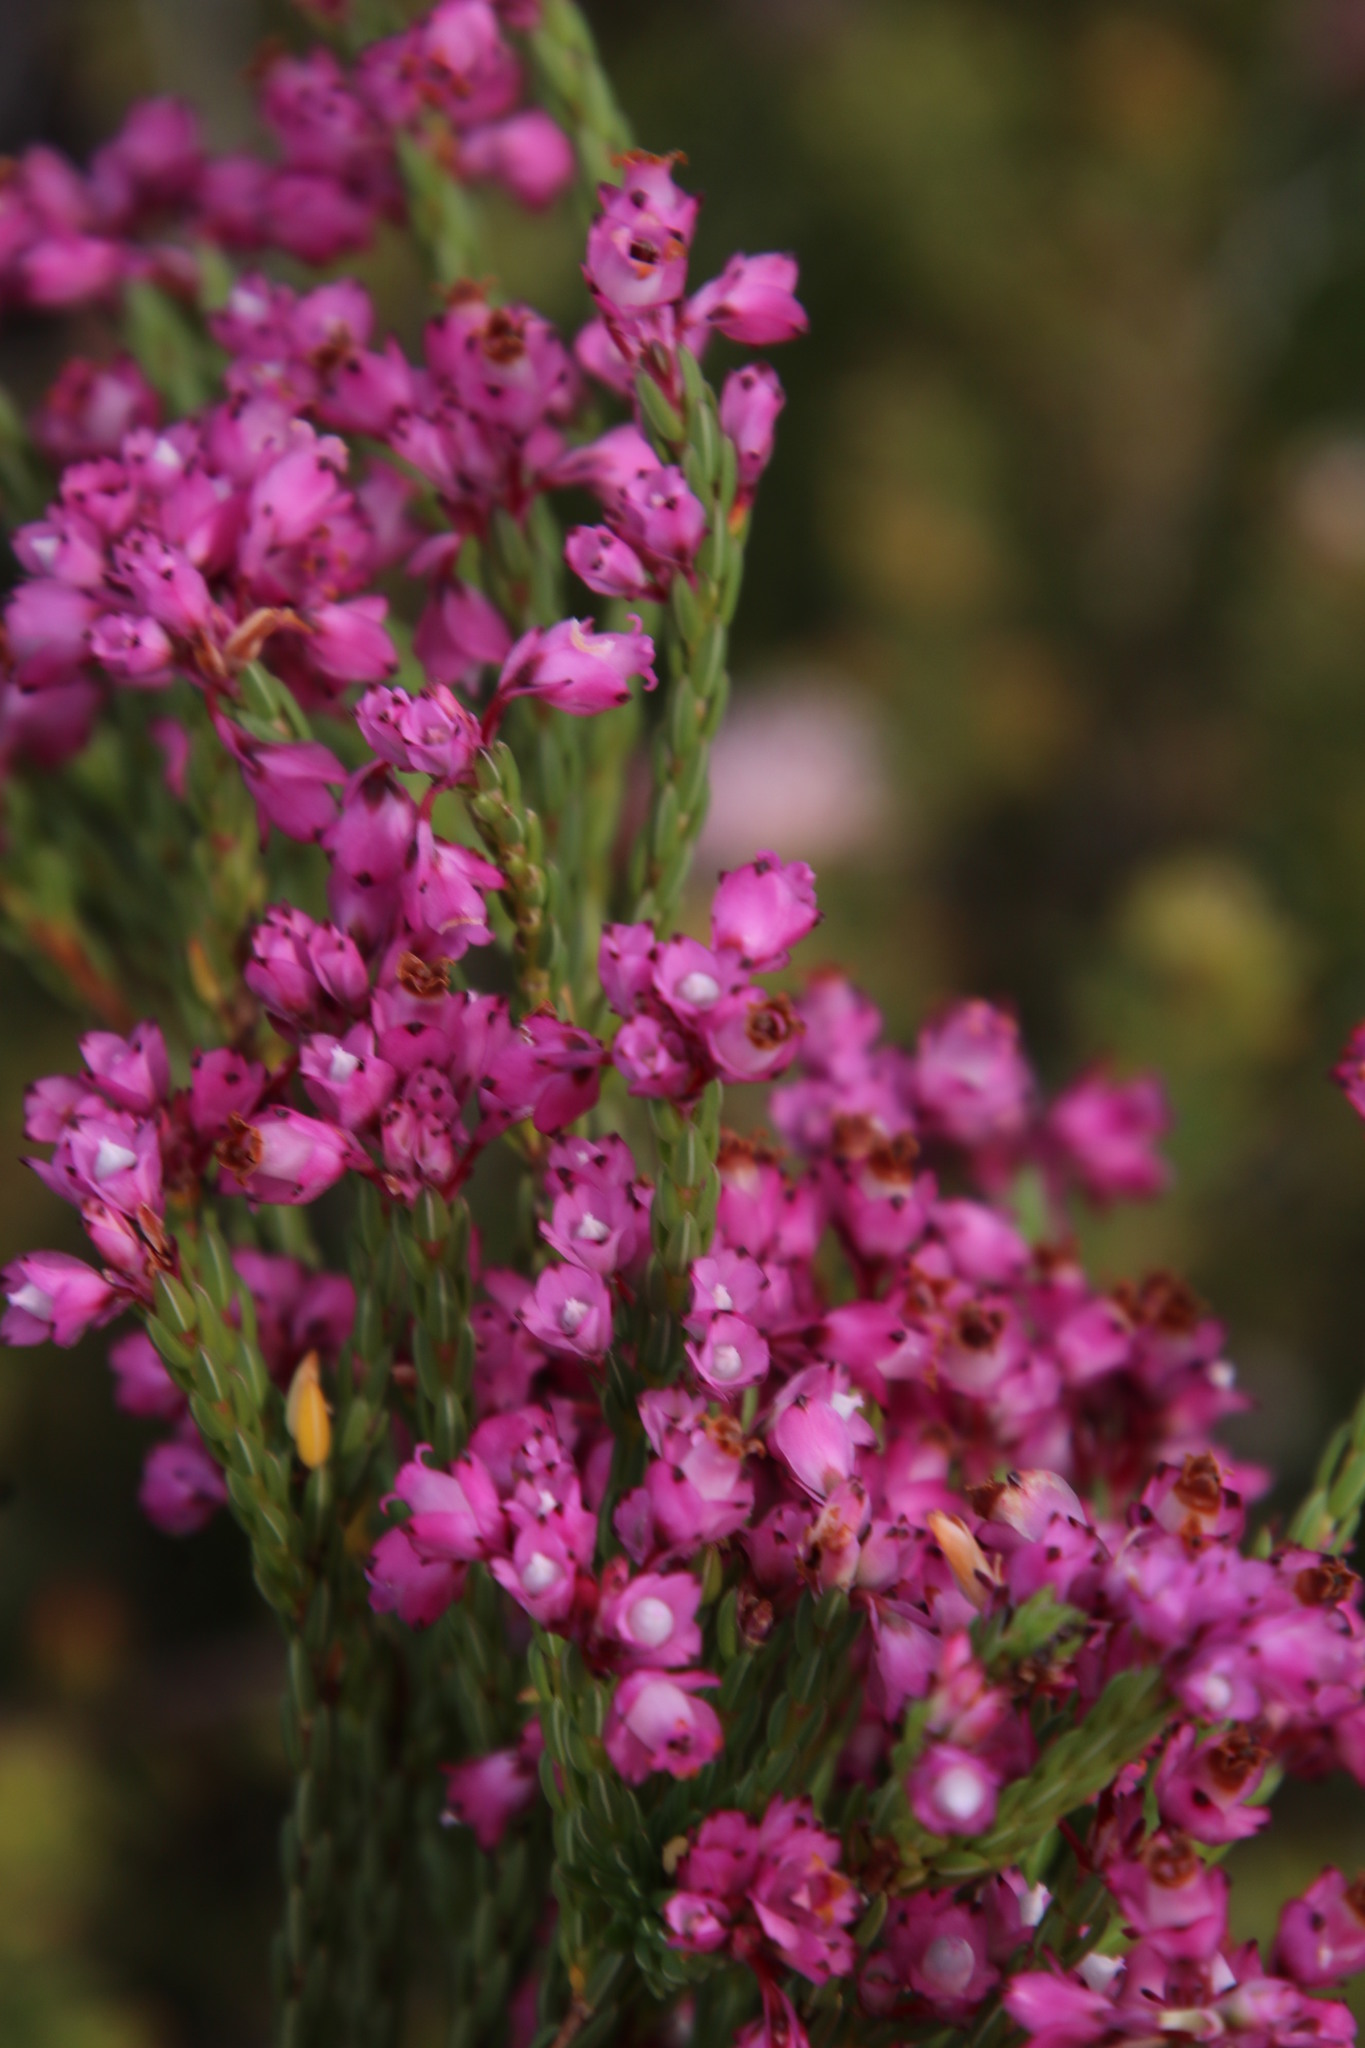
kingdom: Plantae
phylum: Tracheophyta
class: Magnoliopsida
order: Ericales
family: Ericaceae
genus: Erica
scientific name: Erica corifolia
